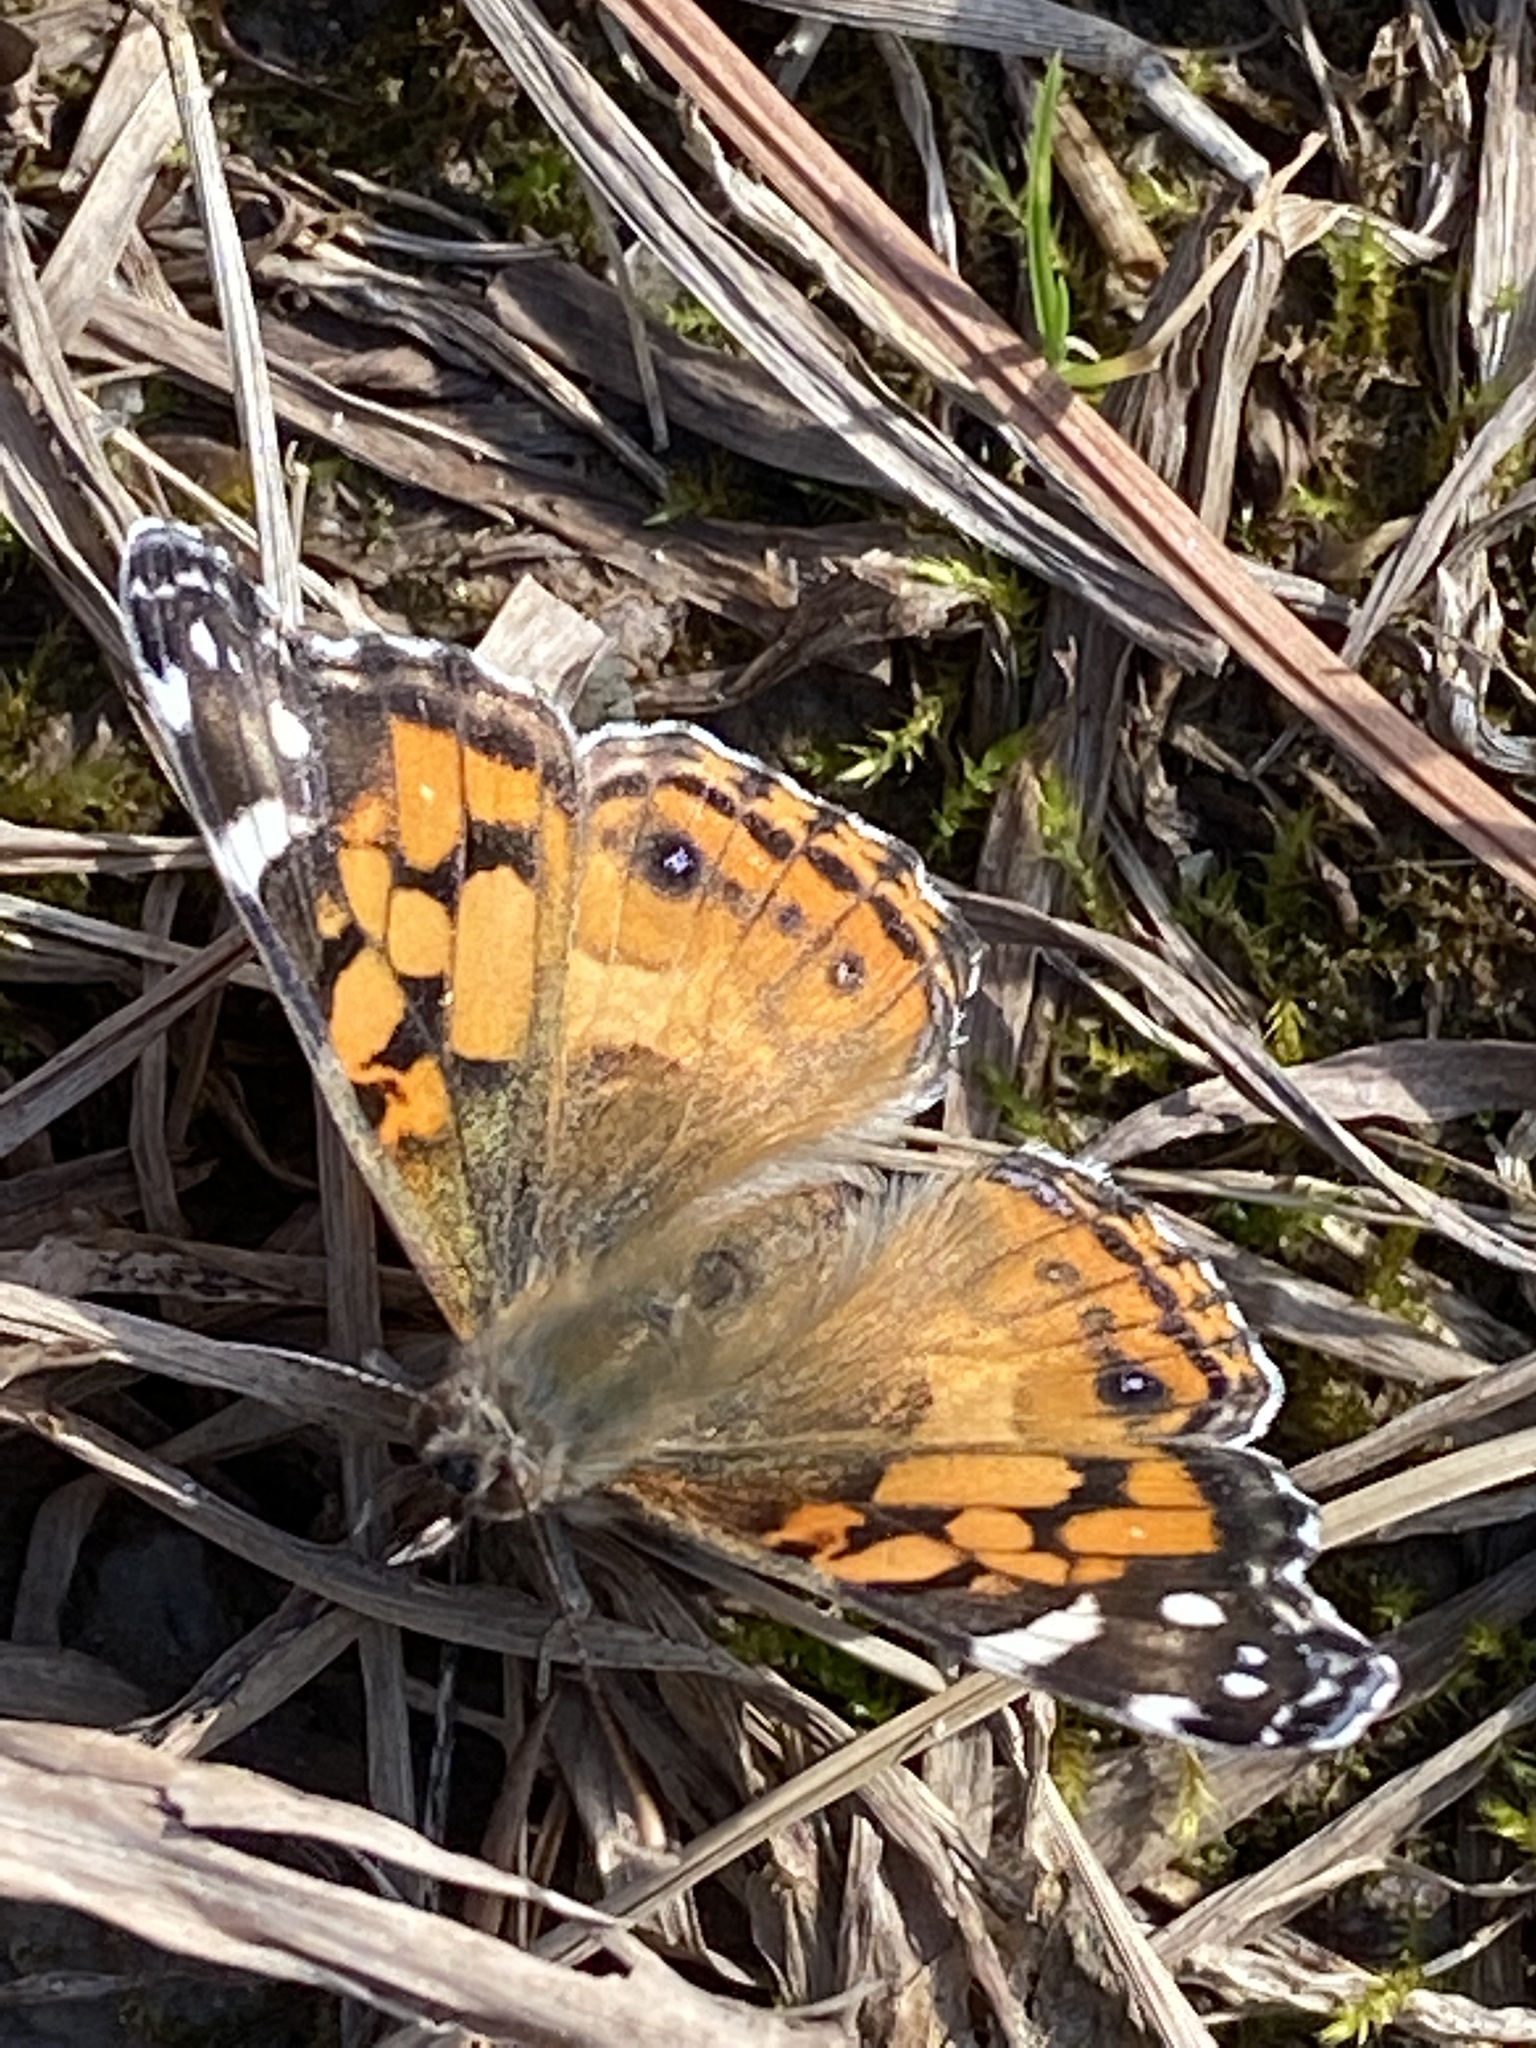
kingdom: Animalia
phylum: Arthropoda
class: Insecta
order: Lepidoptera
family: Nymphalidae
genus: Vanessa
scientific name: Vanessa virginiensis
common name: American lady
